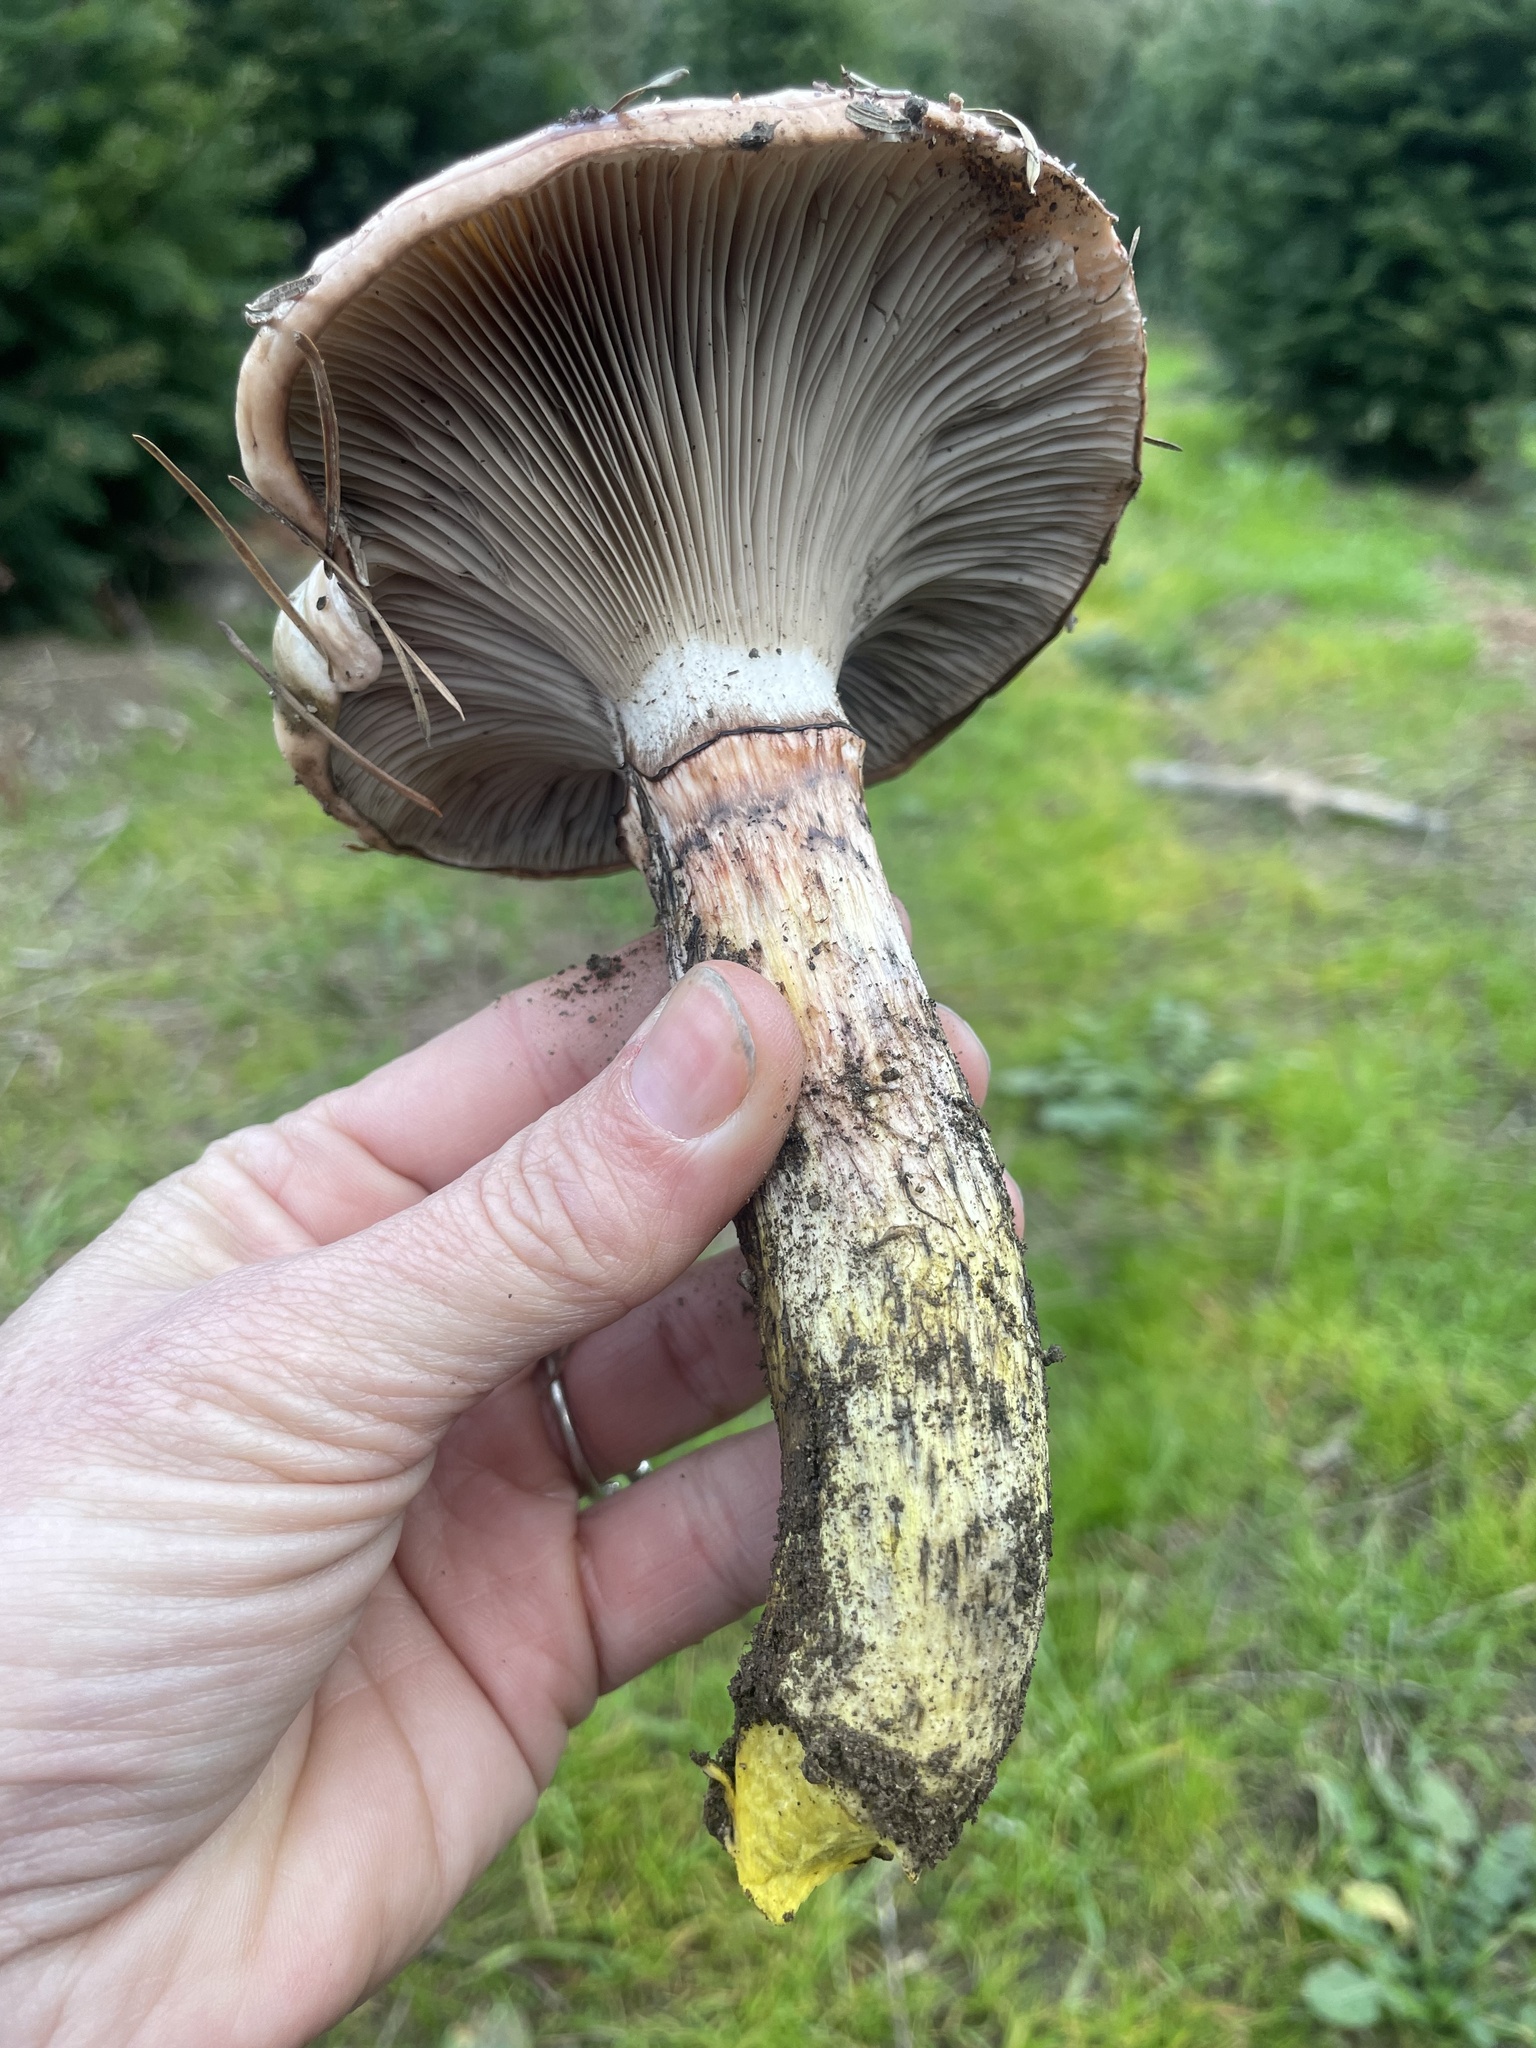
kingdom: Fungi
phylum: Basidiomycota
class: Agaricomycetes
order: Boletales
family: Gomphidiaceae
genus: Gomphidius
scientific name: Gomphidius oregonensis
